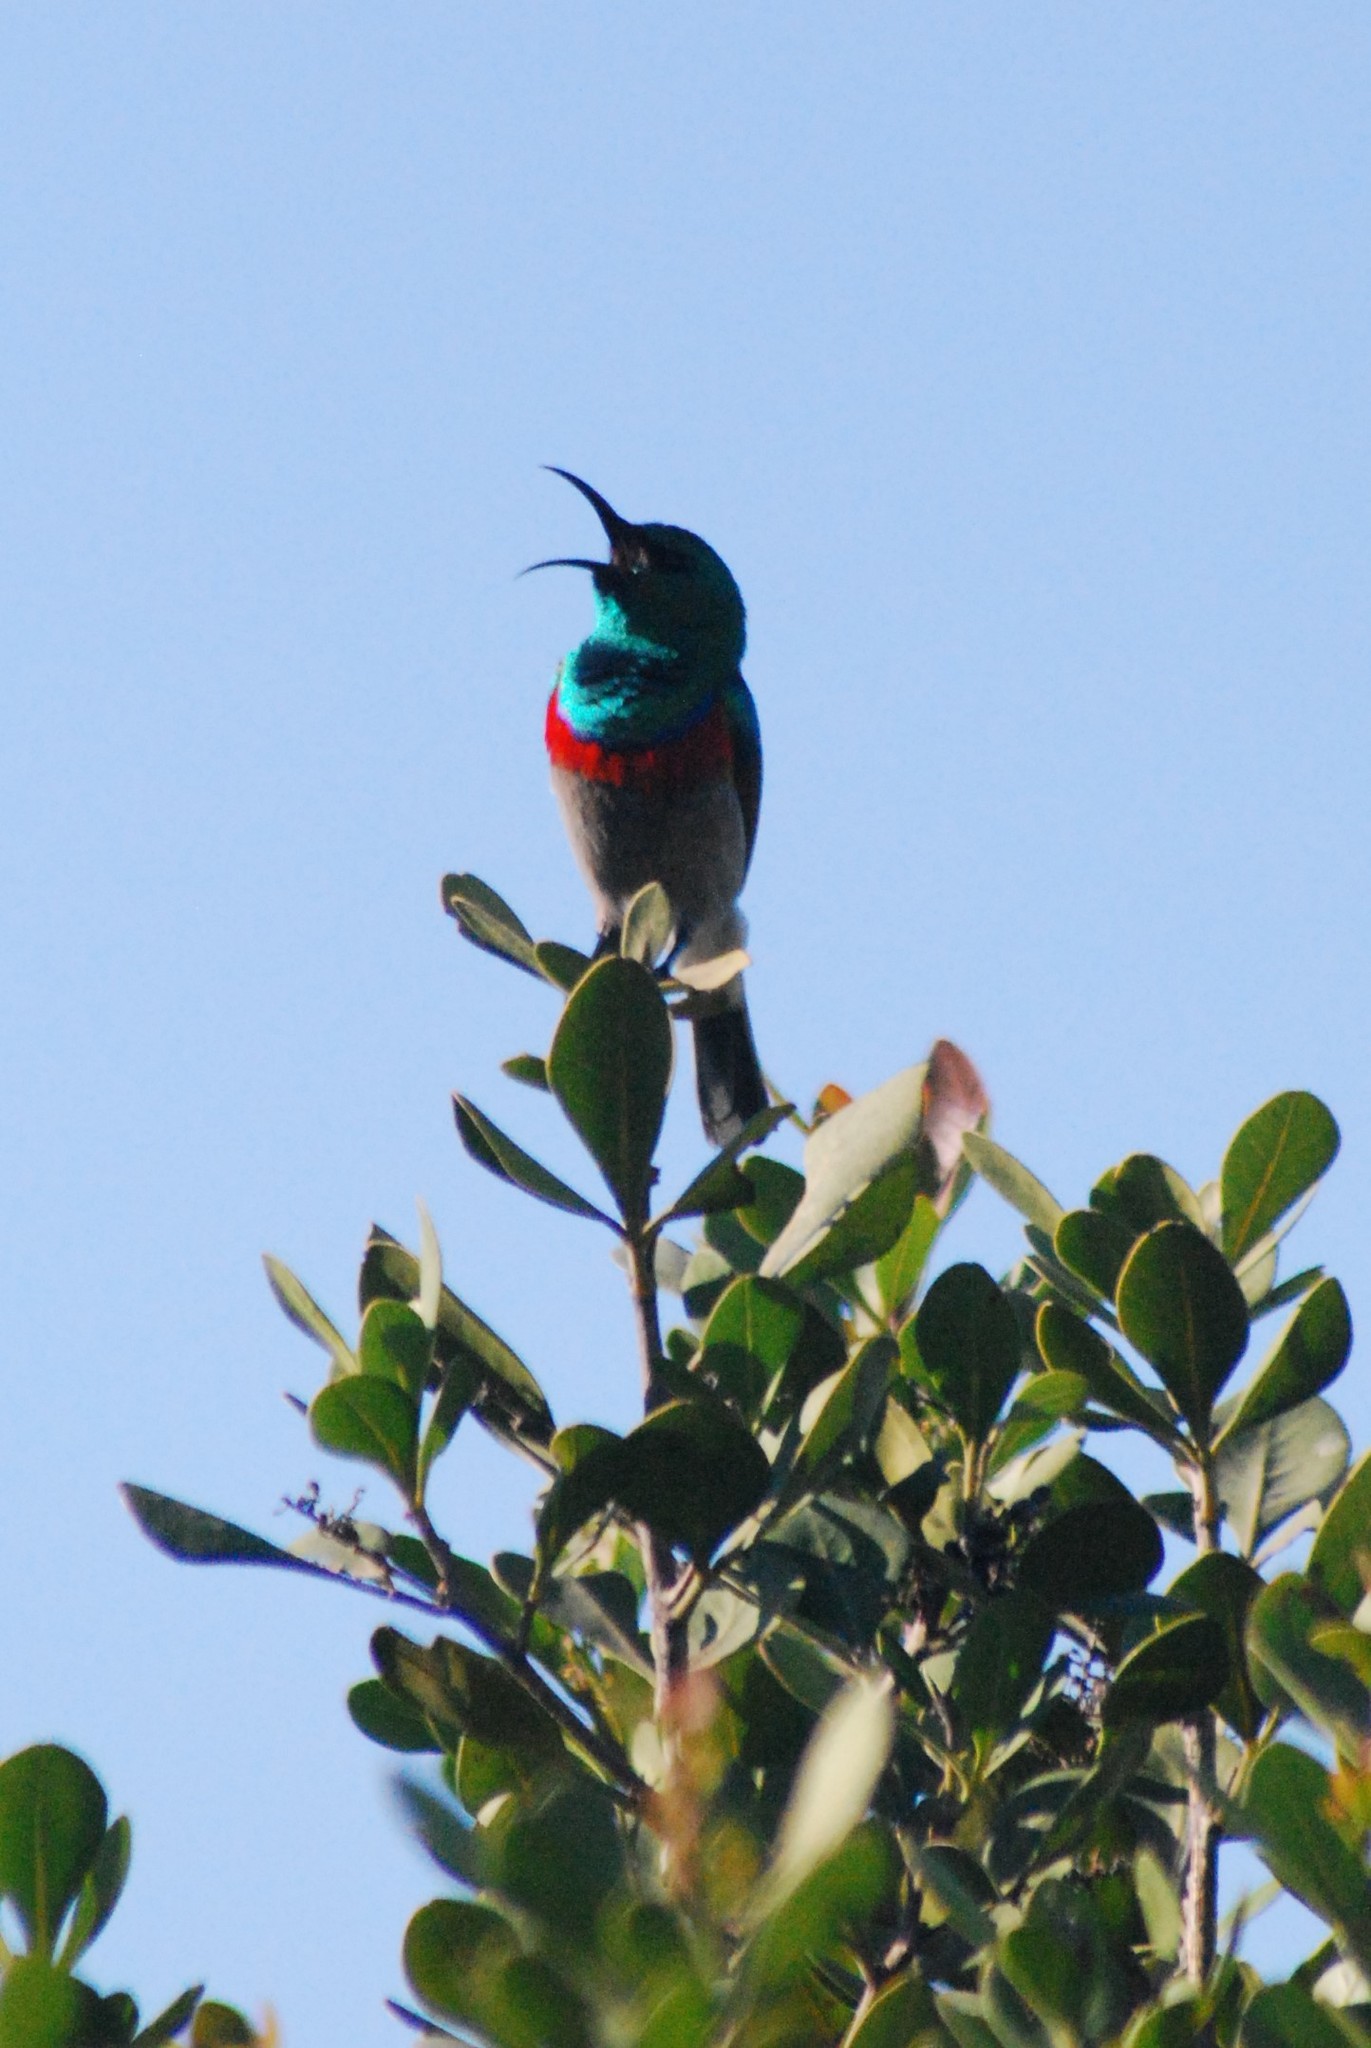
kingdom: Animalia
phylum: Chordata
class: Aves
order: Passeriformes
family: Nectariniidae
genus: Cinnyris
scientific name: Cinnyris chalybeus
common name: Southern double-collared sunbird
